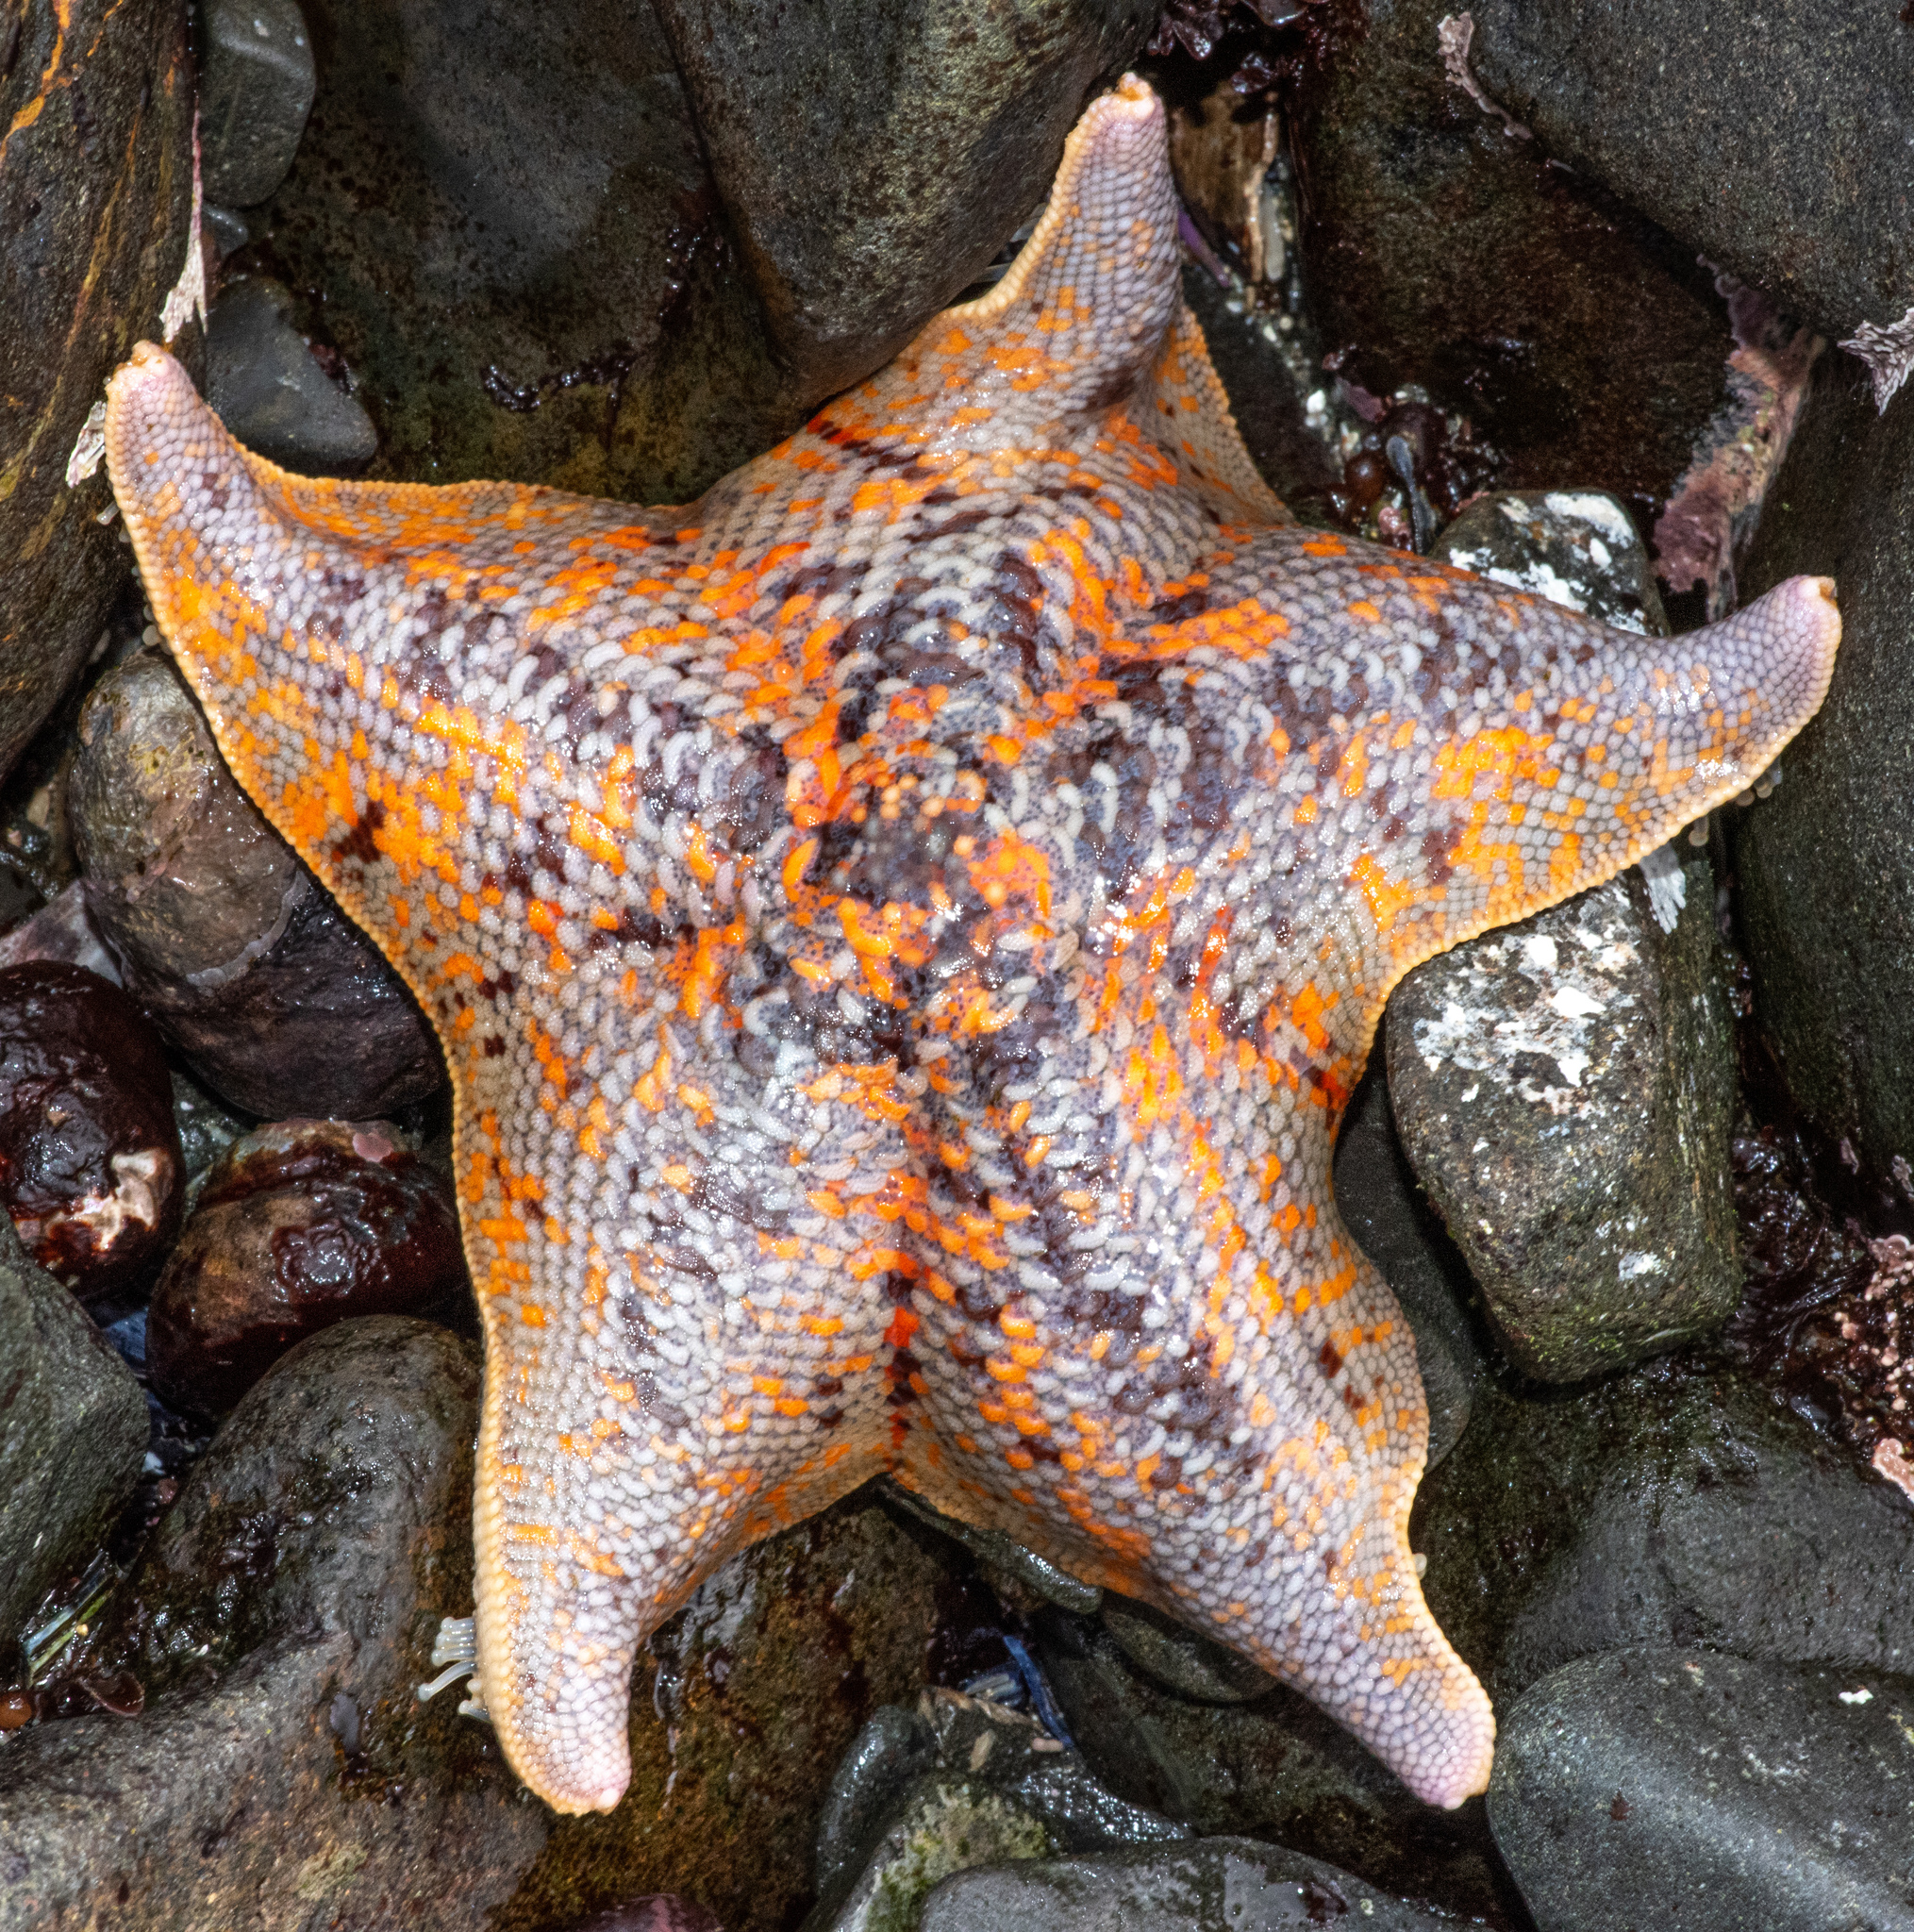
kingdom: Animalia
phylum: Echinodermata
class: Asteroidea
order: Valvatida
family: Asterinidae
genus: Patiria
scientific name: Patiria miniata
